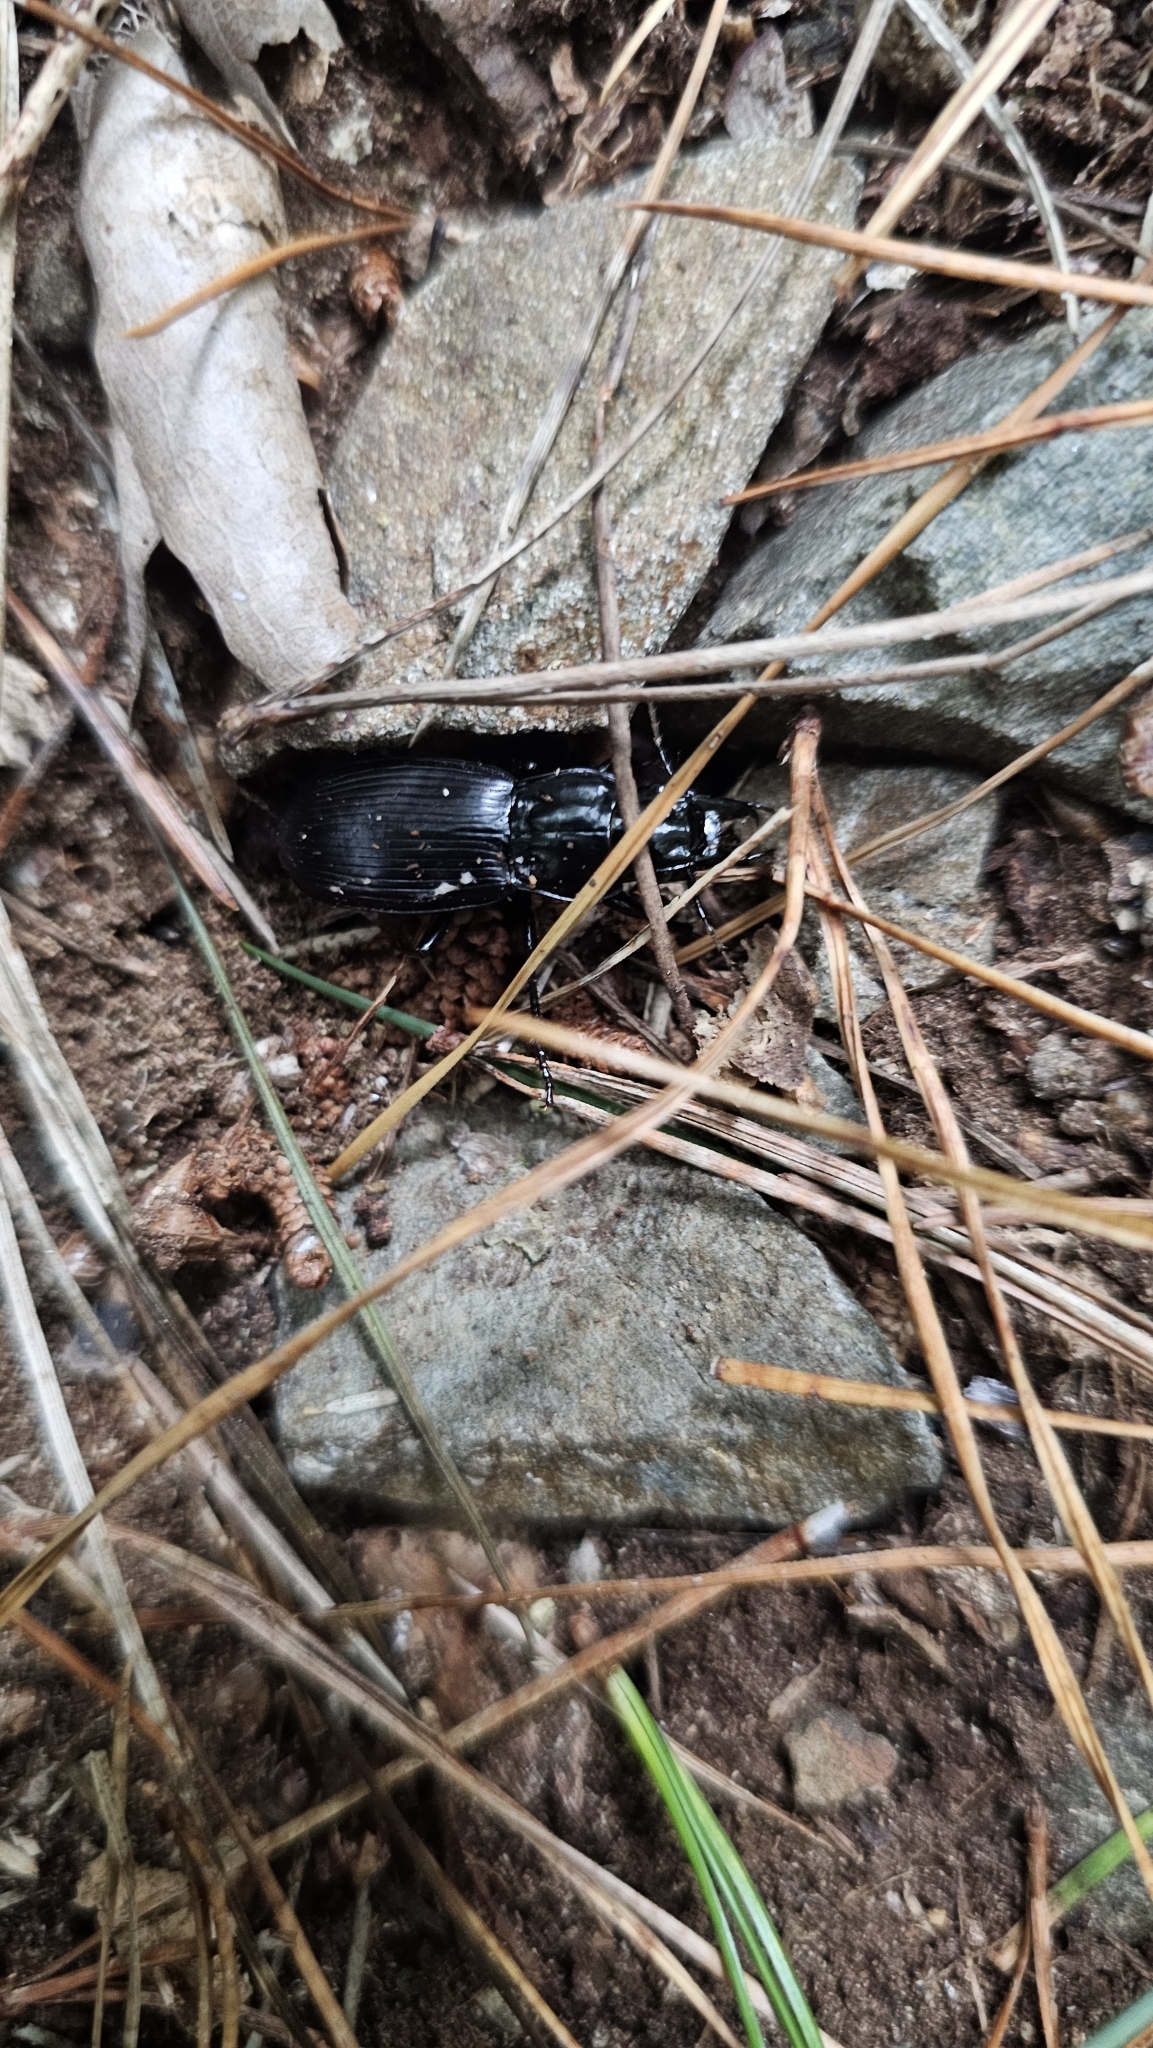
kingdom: Animalia
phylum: Arthropoda
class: Insecta
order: Coleoptera
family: Carabidae
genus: Plocamostethus
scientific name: Plocamostethus planiusculus
